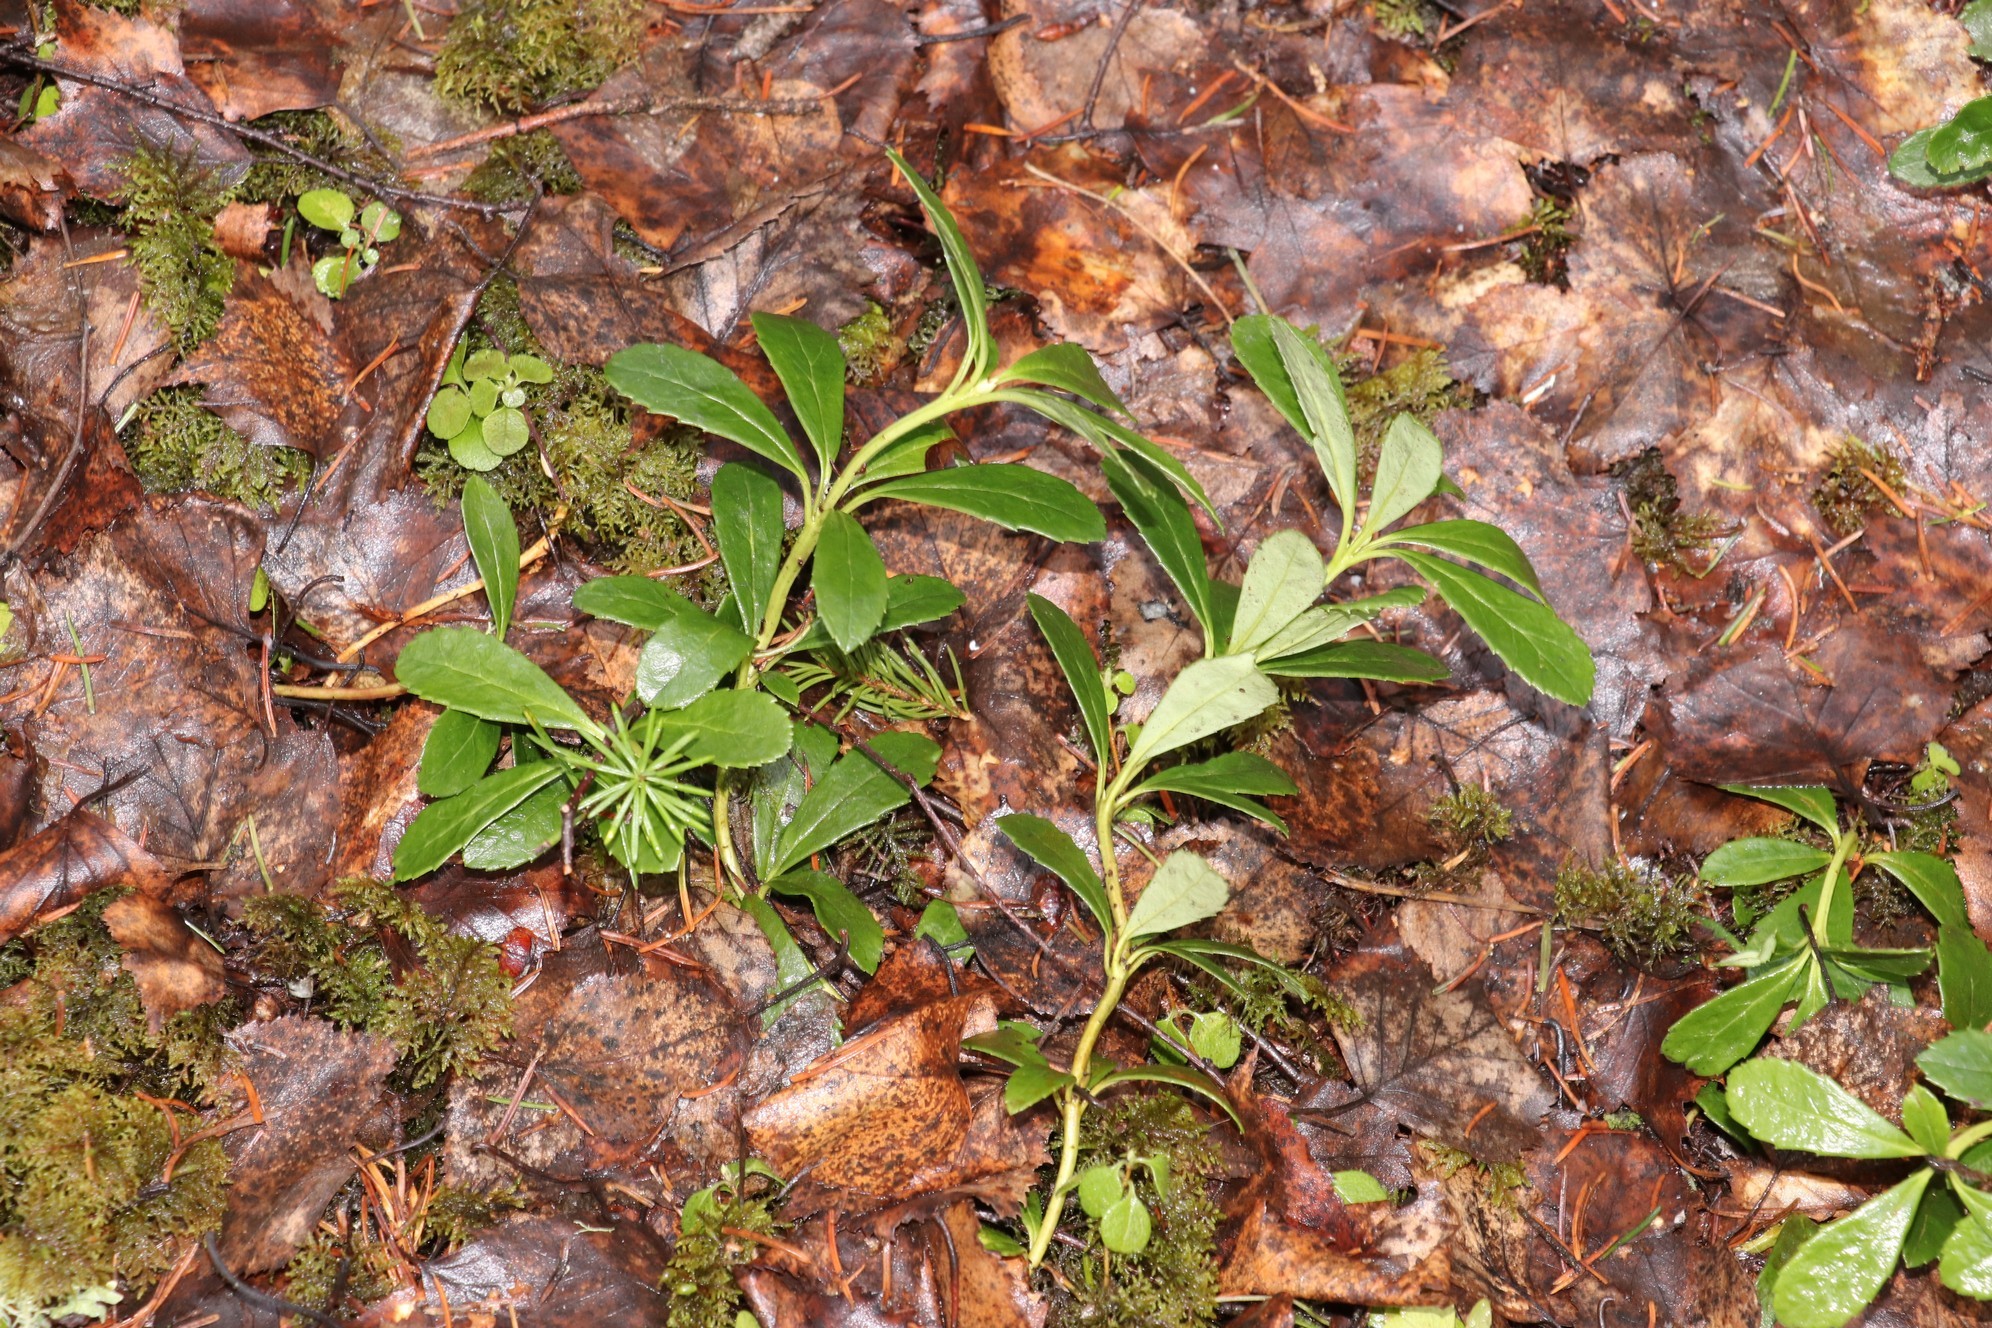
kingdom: Plantae
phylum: Tracheophyta
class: Magnoliopsida
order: Ericales
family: Ericaceae
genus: Chimaphila
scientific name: Chimaphila umbellata
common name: Pipsissewa
